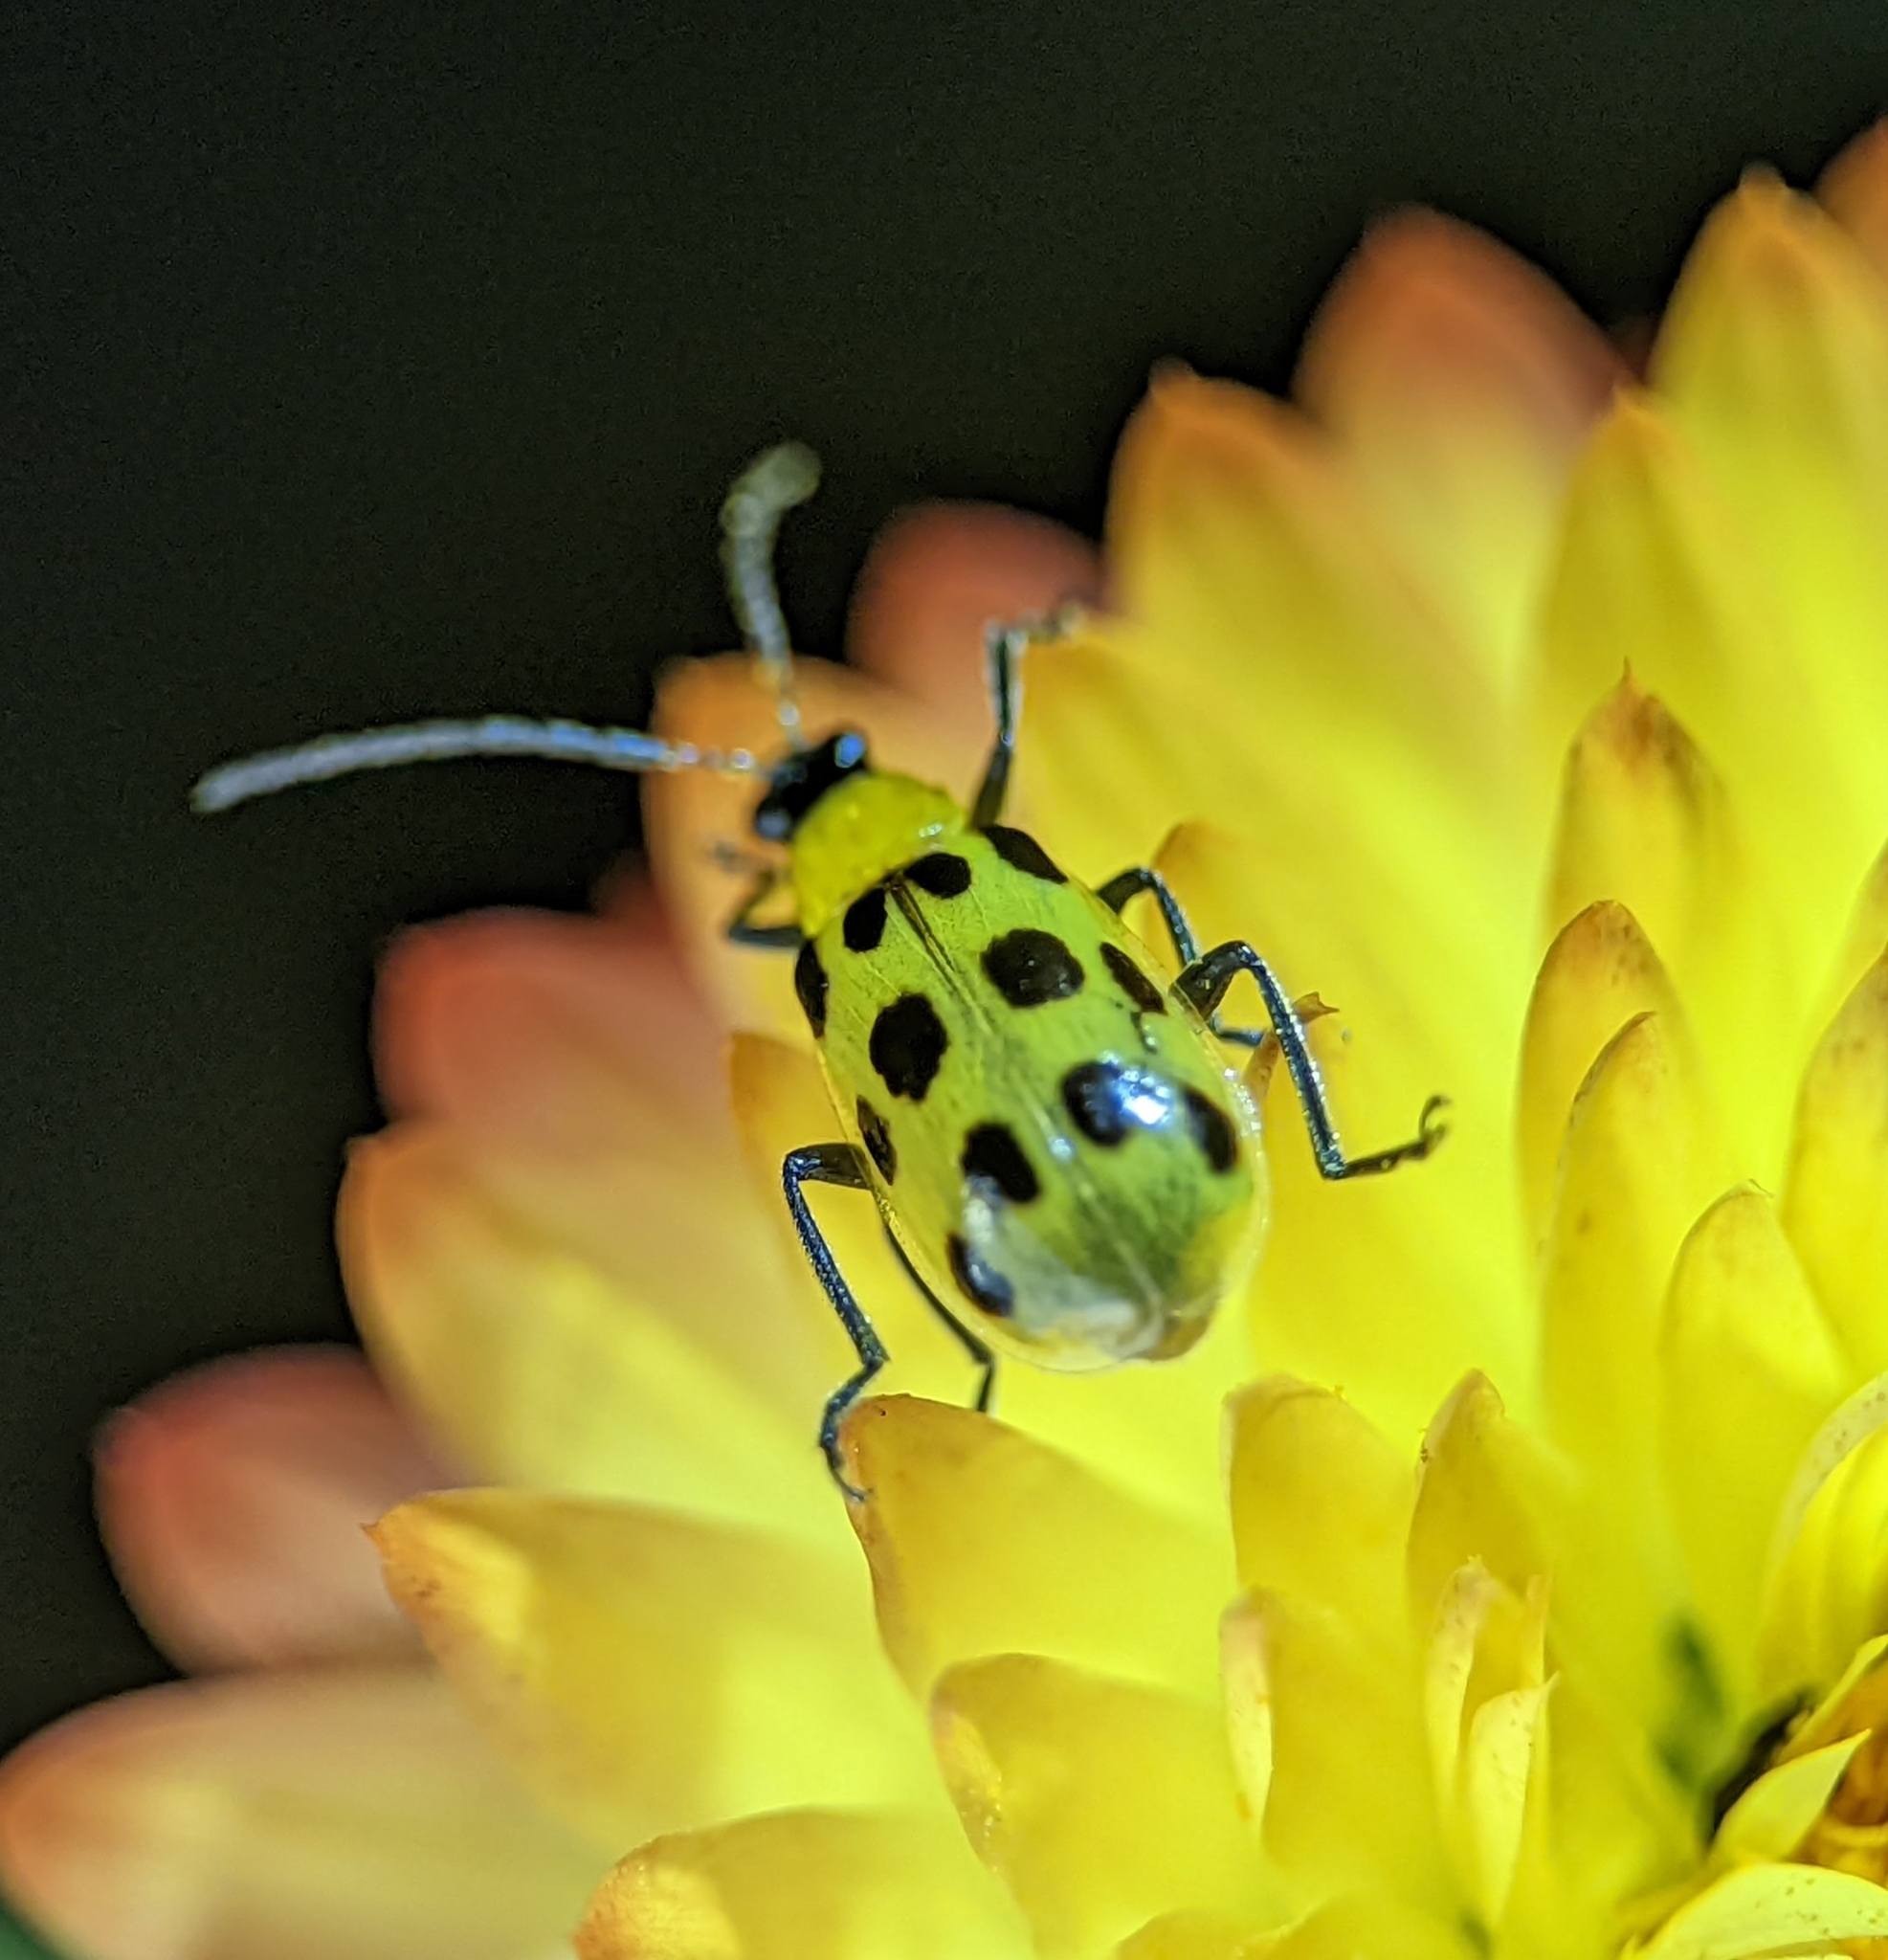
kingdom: Animalia
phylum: Arthropoda
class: Insecta
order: Coleoptera
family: Chrysomelidae
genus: Diabrotica
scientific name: Diabrotica undecimpunctata
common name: Spotted cucumber beetle
